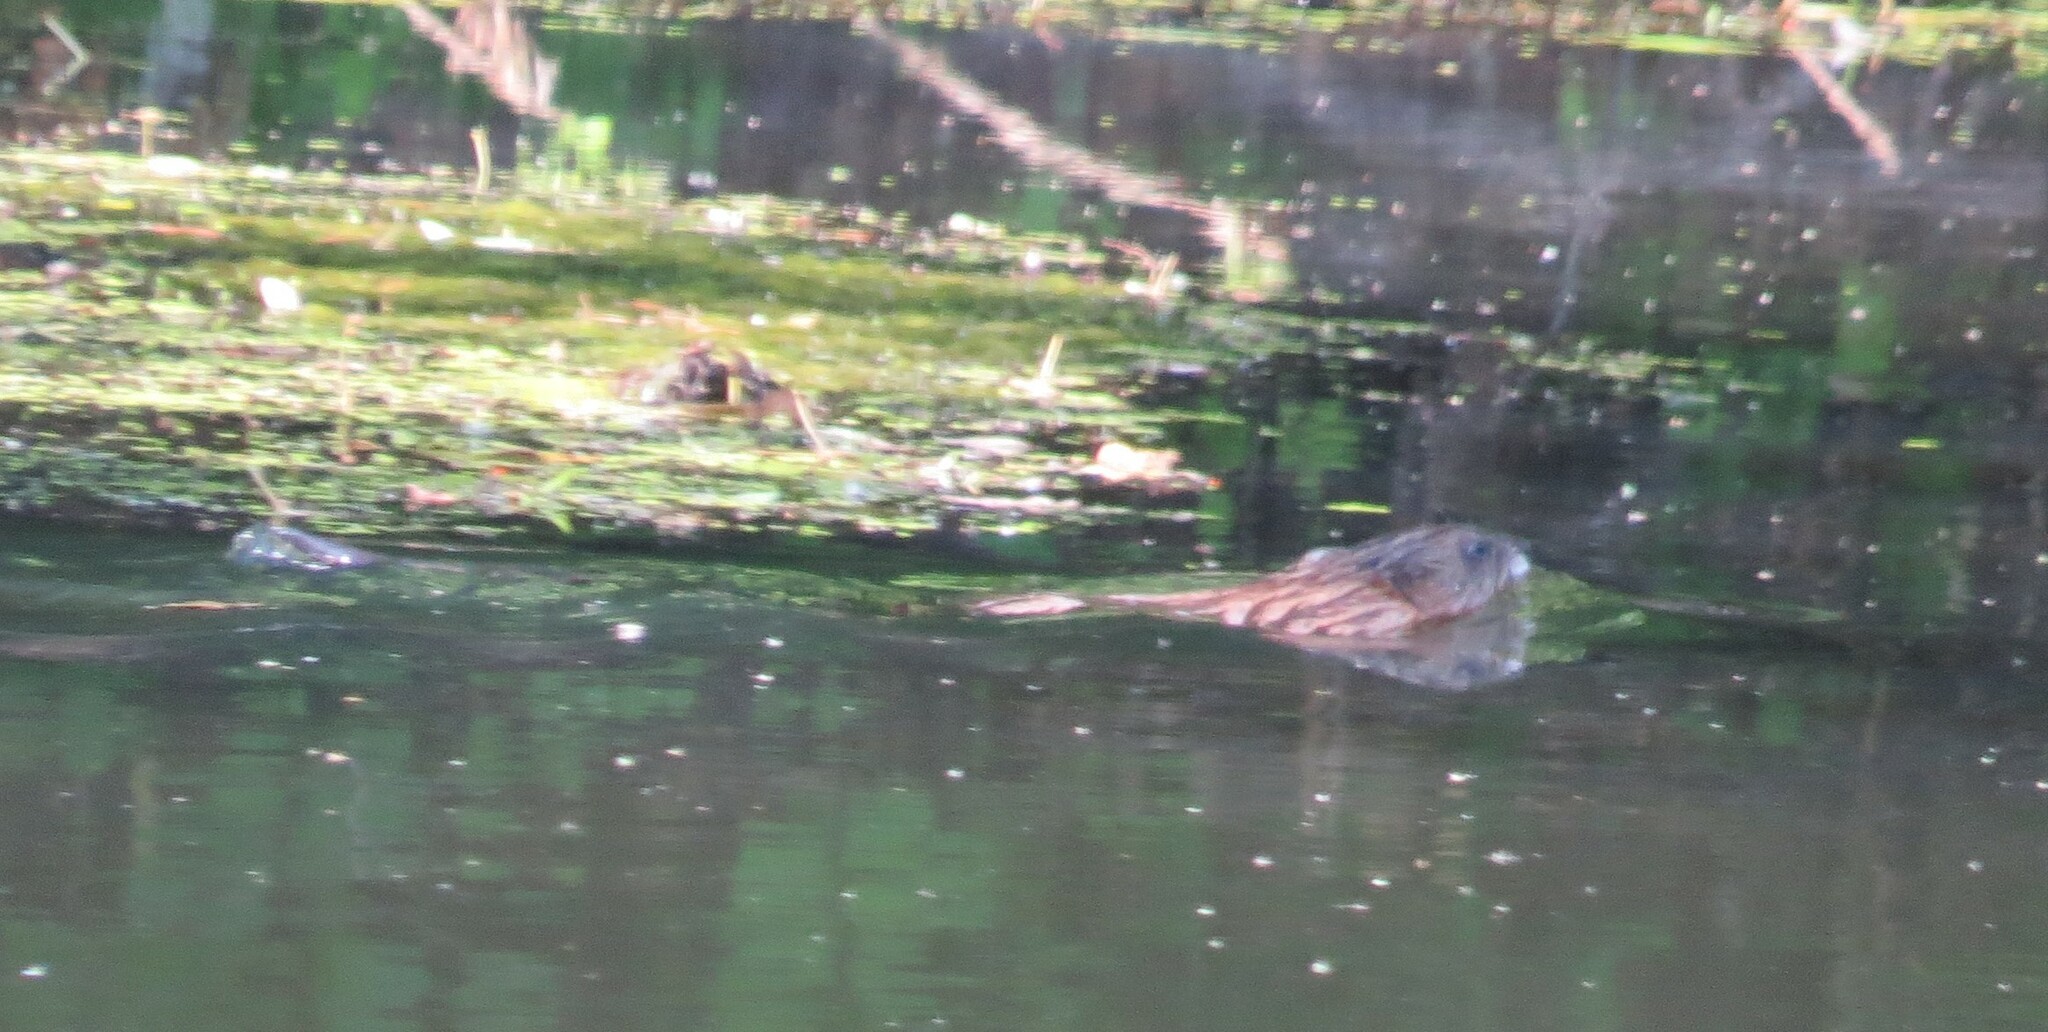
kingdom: Animalia
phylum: Chordata
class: Mammalia
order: Rodentia
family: Cricetidae
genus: Ondatra
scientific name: Ondatra zibethicus
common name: Muskrat
